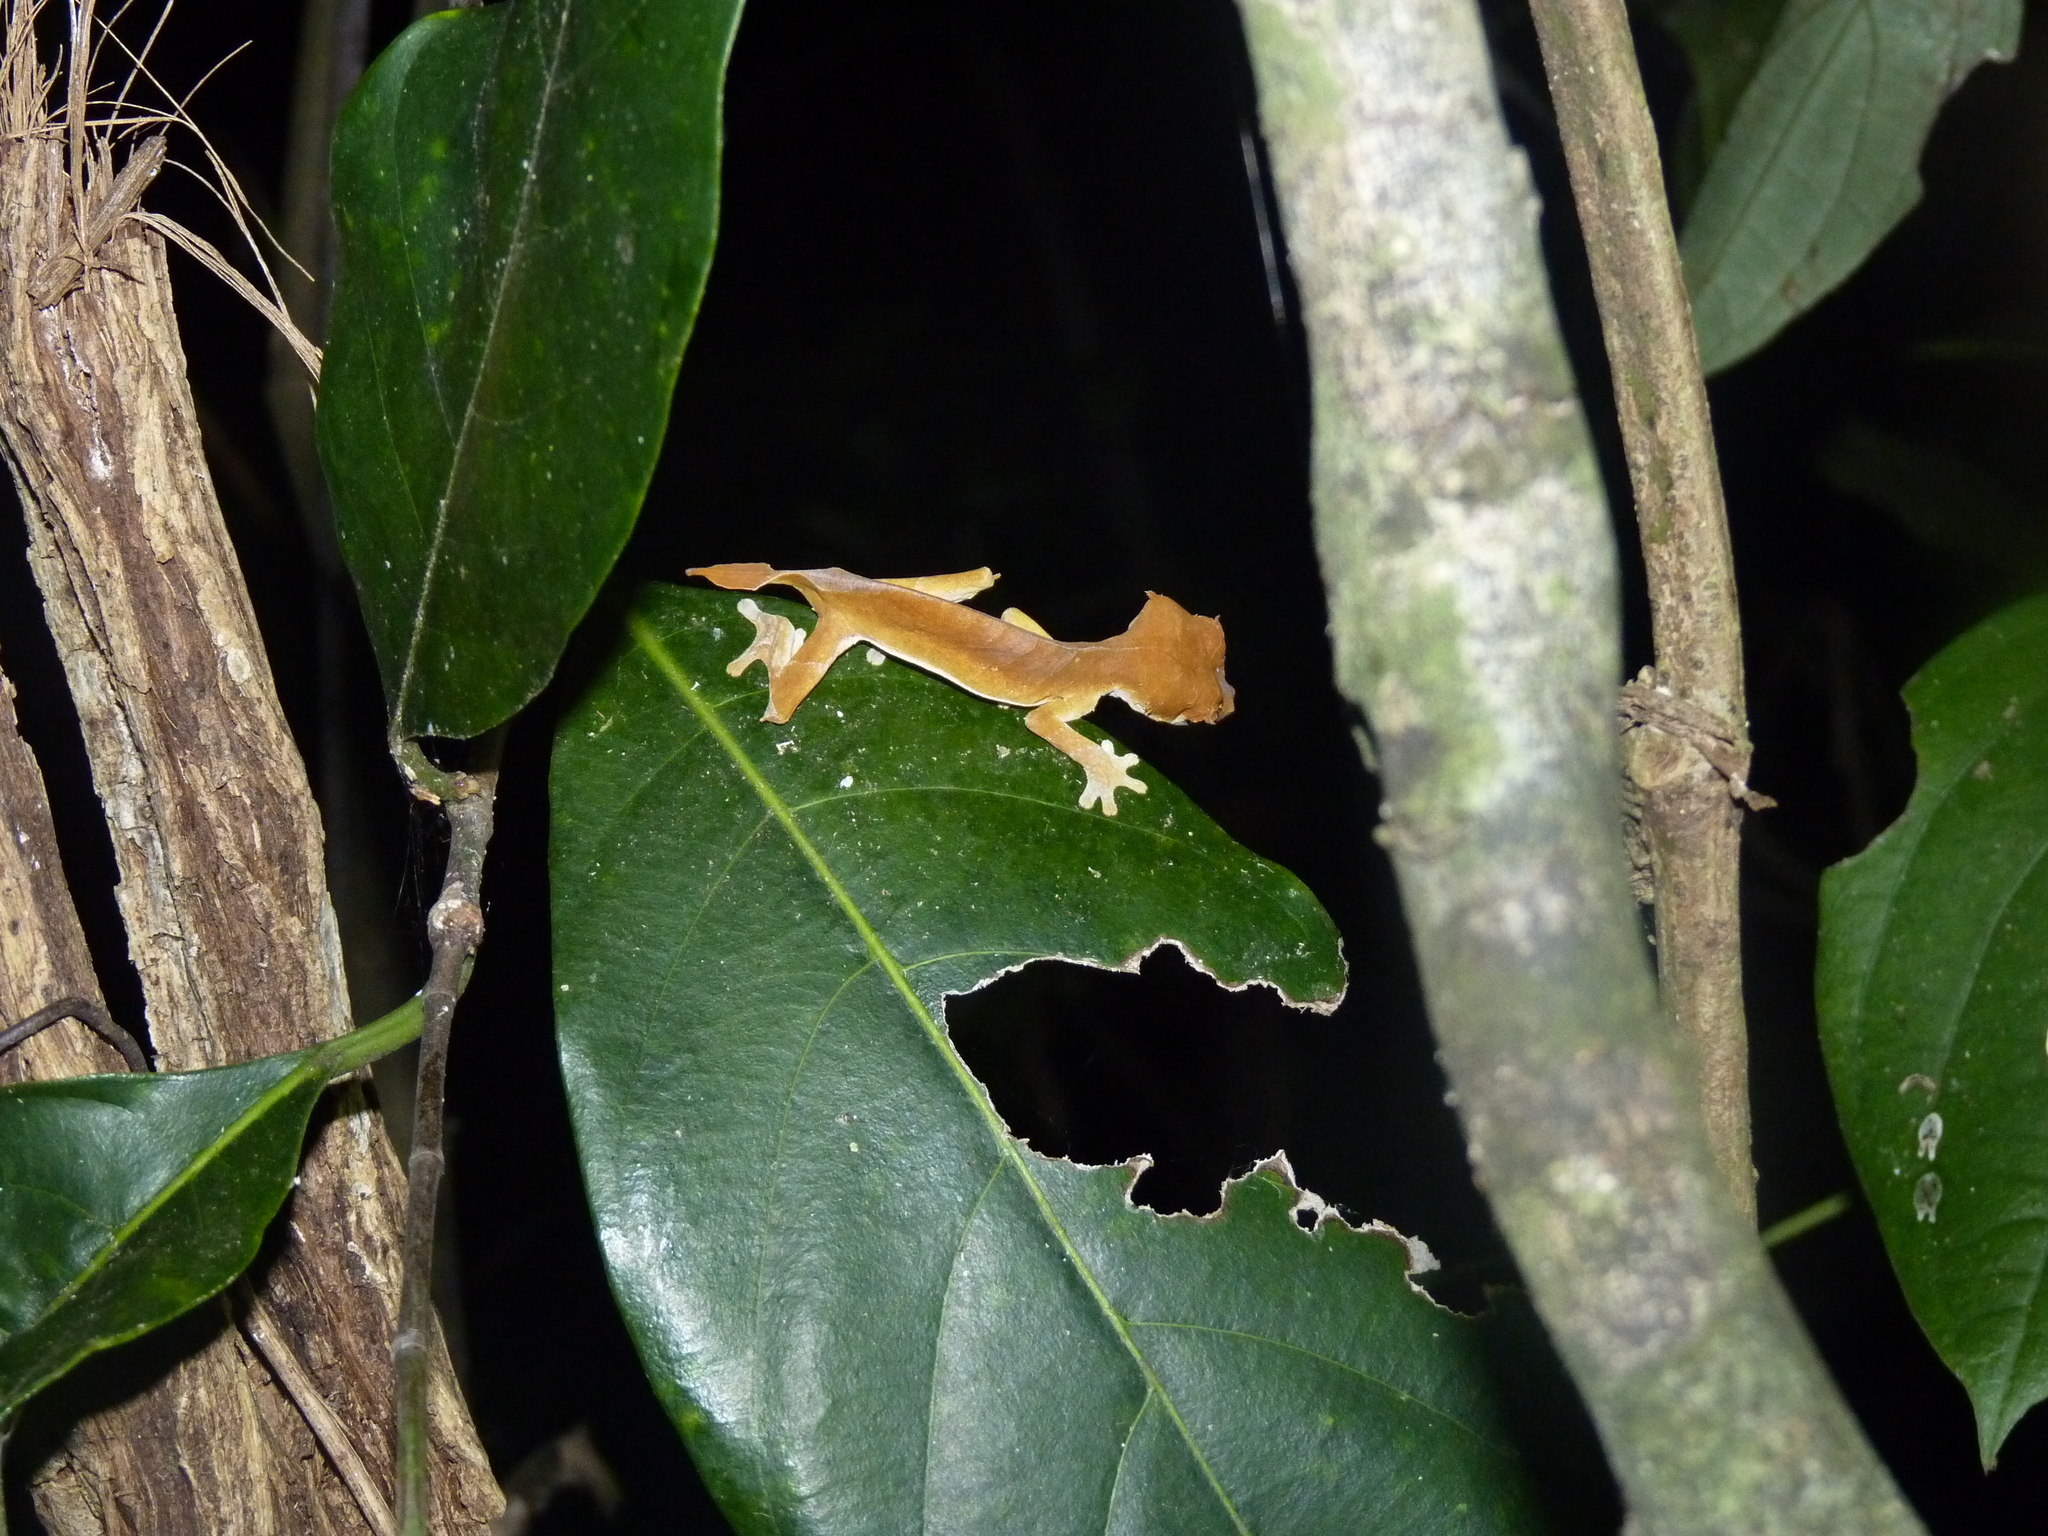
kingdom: Animalia
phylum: Chordata
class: Squamata
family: Gekkonidae
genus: Uroplatus
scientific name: Uroplatus ebenaui
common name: Nosy be fiat-tail gecko
